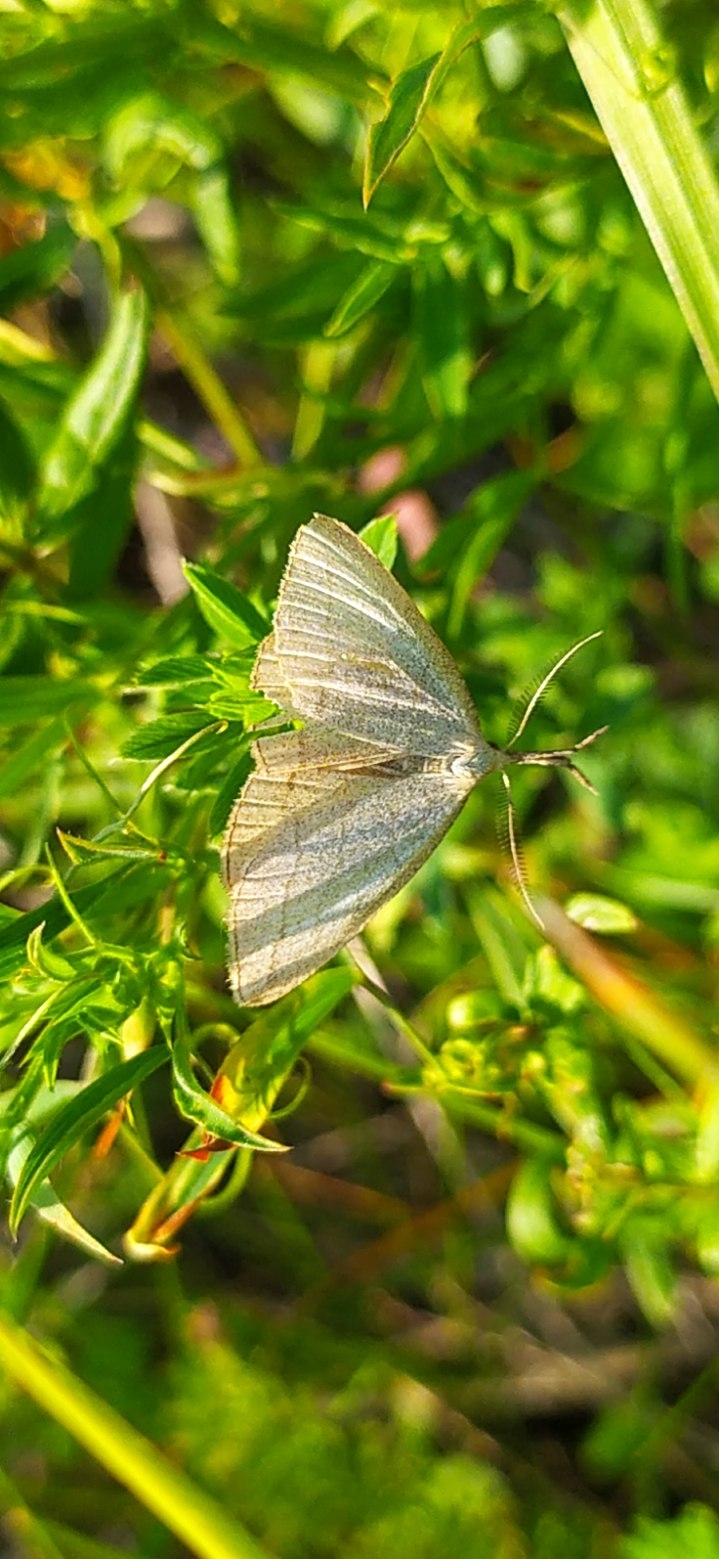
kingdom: Animalia
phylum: Arthropoda
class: Insecta
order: Lepidoptera
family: Erebidae
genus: Polypogon
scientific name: Polypogon tentacularia
